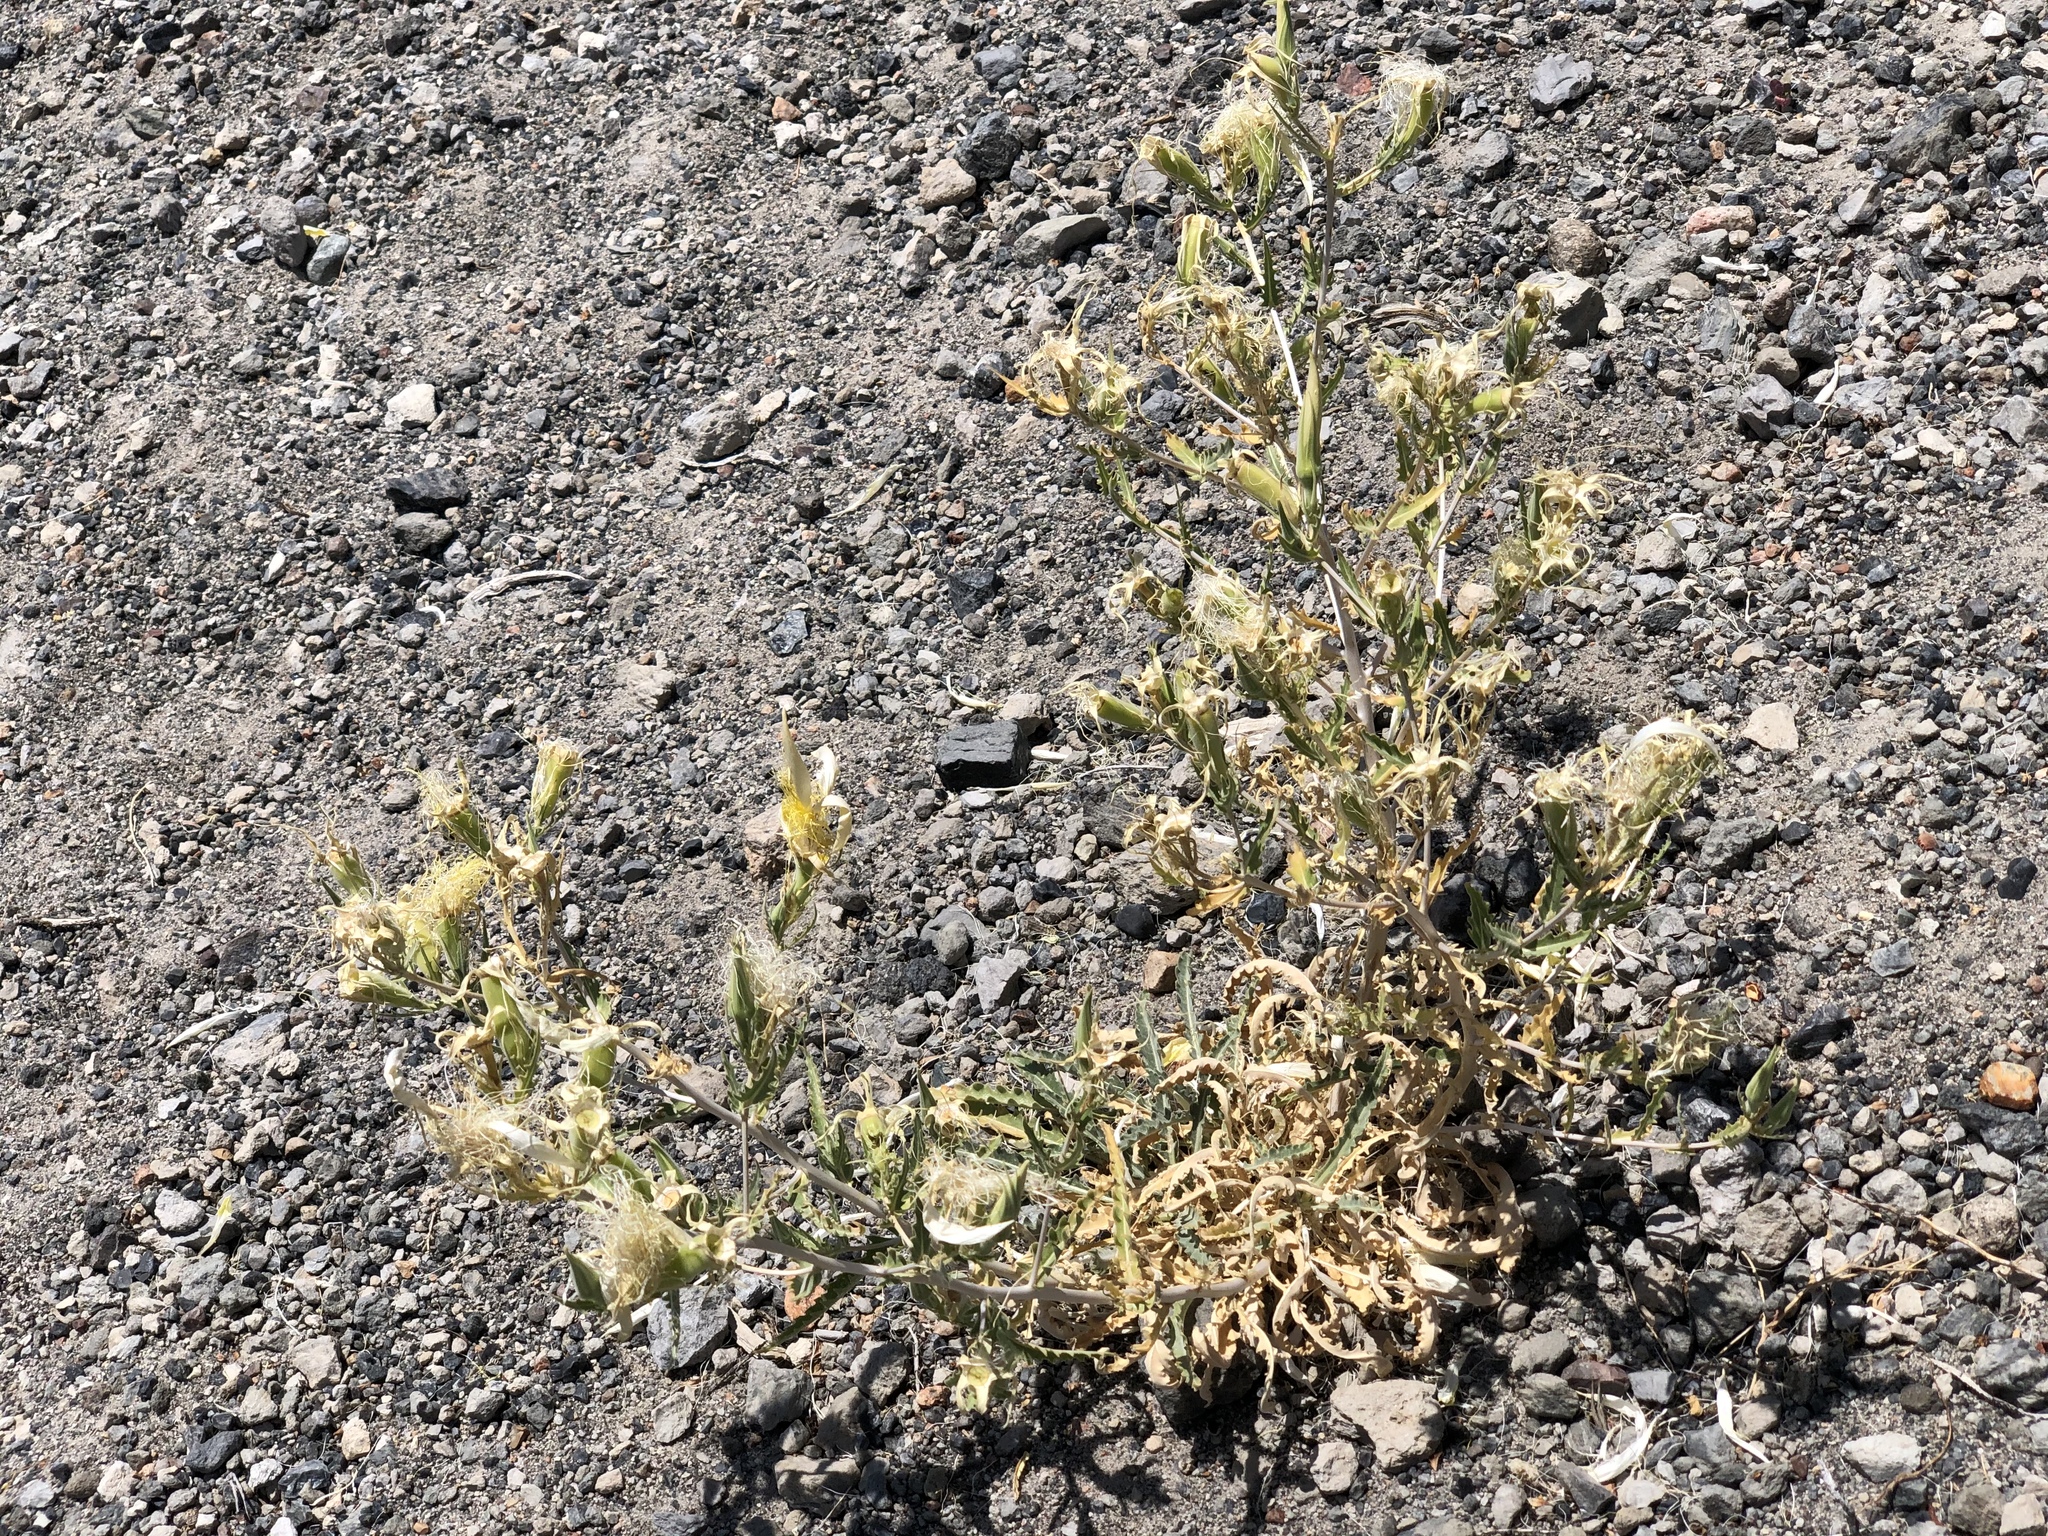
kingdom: Plantae
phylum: Tracheophyta
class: Magnoliopsida
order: Cornales
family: Loasaceae
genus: Mentzelia
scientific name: Mentzelia laevicaulis
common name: Smooth-stem blazingstar
